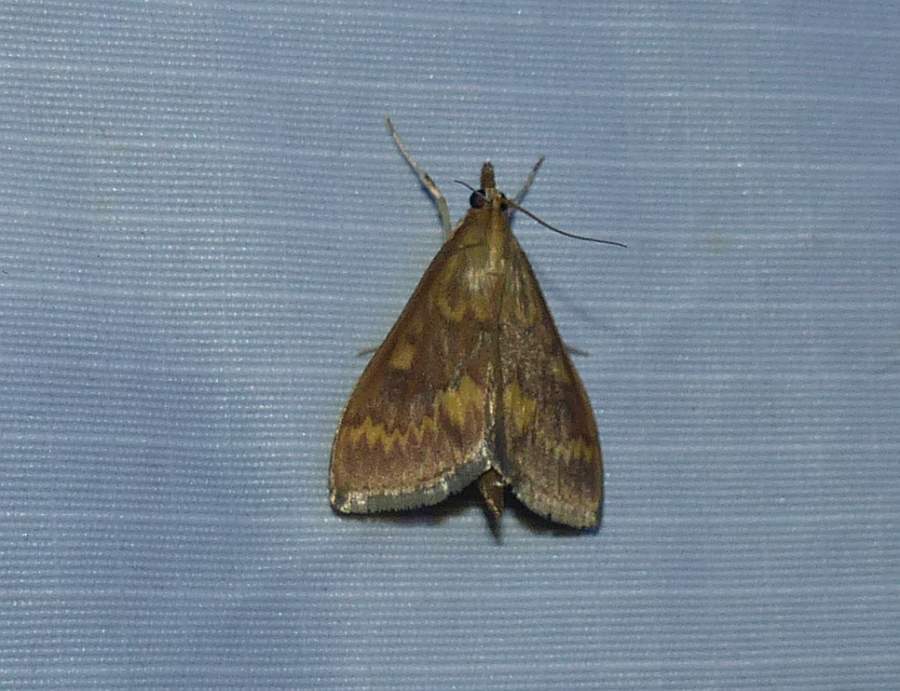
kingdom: Animalia
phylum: Arthropoda
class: Insecta
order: Lepidoptera
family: Crambidae
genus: Ostrinia
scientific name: Ostrinia nubilalis
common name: European corn borer
